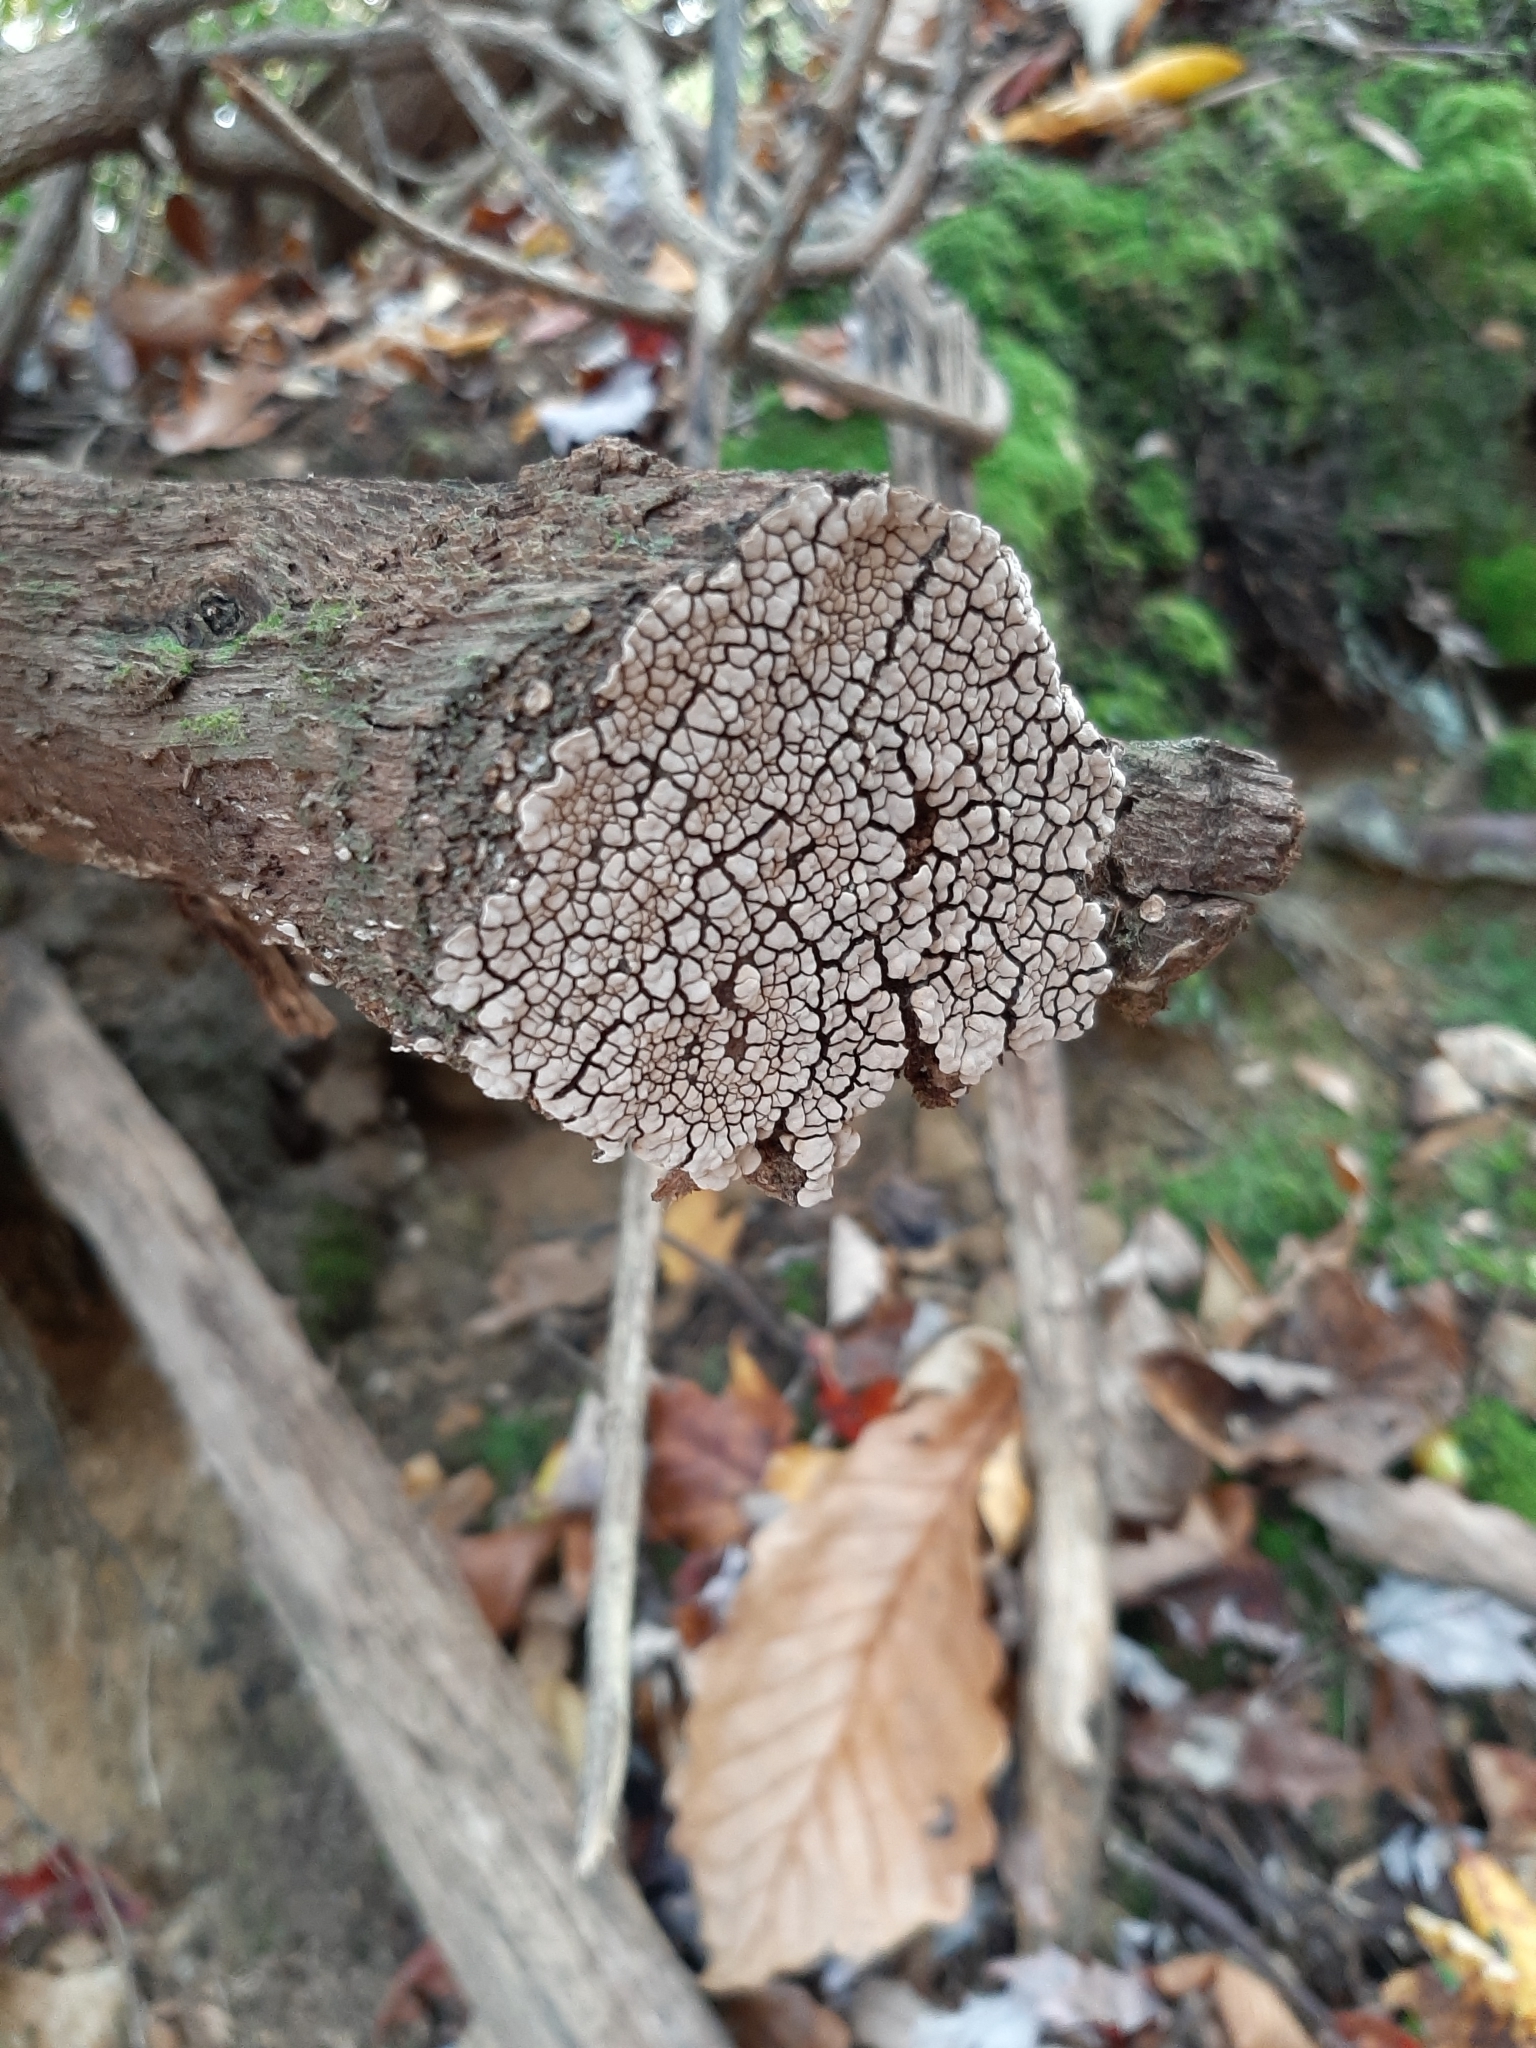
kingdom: Fungi
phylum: Basidiomycota
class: Agaricomycetes
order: Russulales
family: Stereaceae
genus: Xylobolus
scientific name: Xylobolus frustulatus
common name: Ceramic parchment
